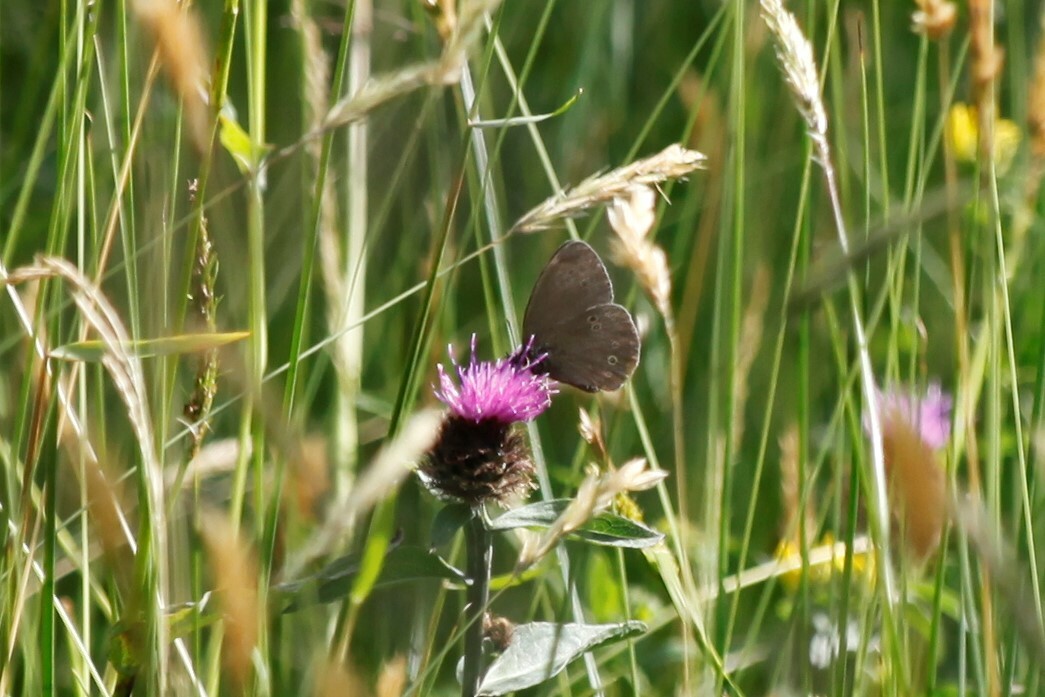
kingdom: Animalia
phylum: Arthropoda
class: Insecta
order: Lepidoptera
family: Nymphalidae
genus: Aphantopus
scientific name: Aphantopus hyperantus
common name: Ringlet
